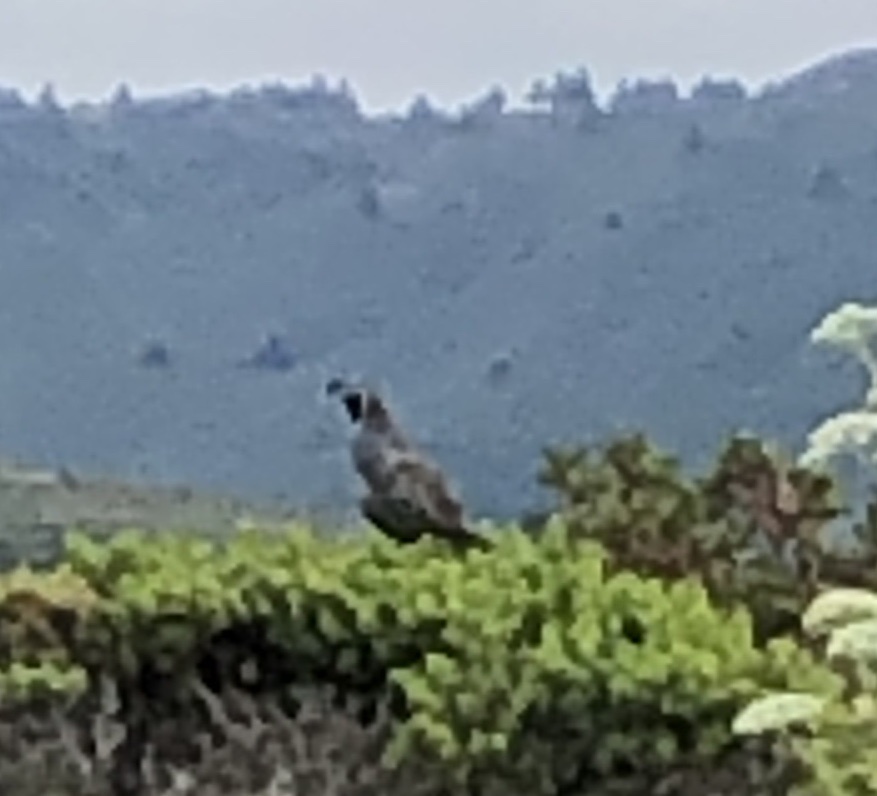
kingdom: Animalia
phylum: Chordata
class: Aves
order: Galliformes
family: Odontophoridae
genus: Callipepla
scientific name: Callipepla californica
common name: California quail
